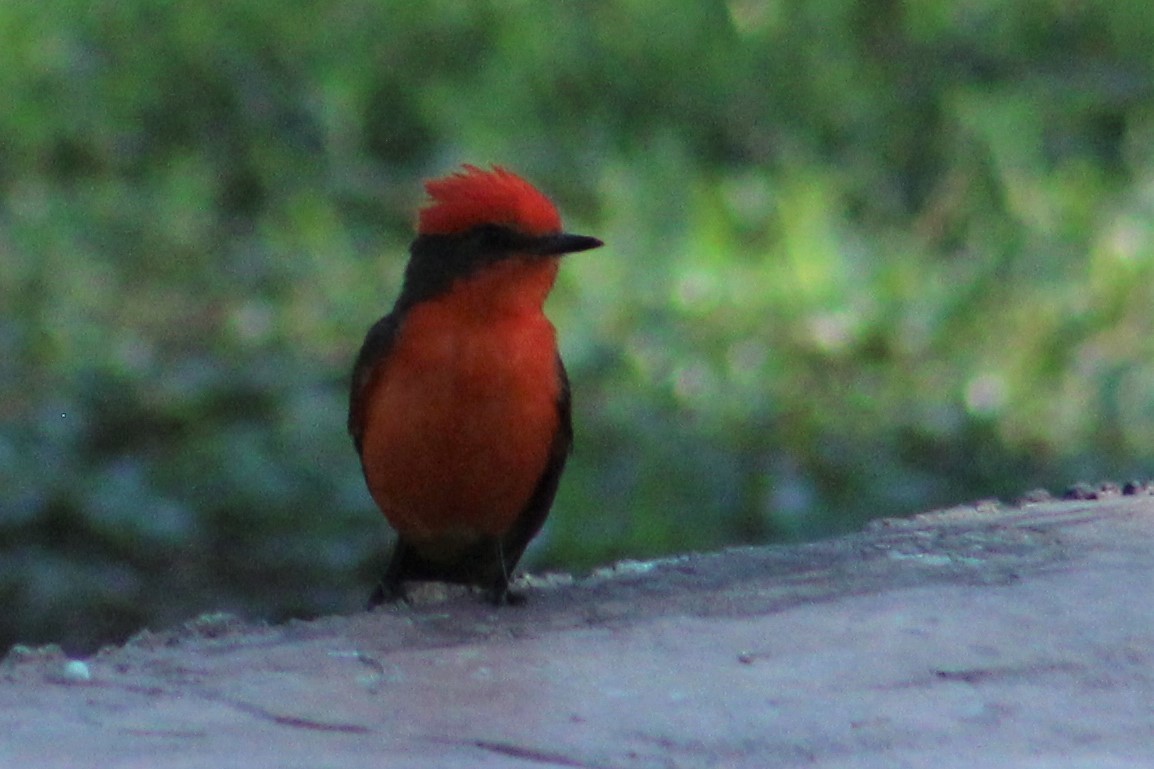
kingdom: Animalia
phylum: Chordata
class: Aves
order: Passeriformes
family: Tyrannidae
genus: Pyrocephalus
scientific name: Pyrocephalus rubinus
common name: Vermilion flycatcher
